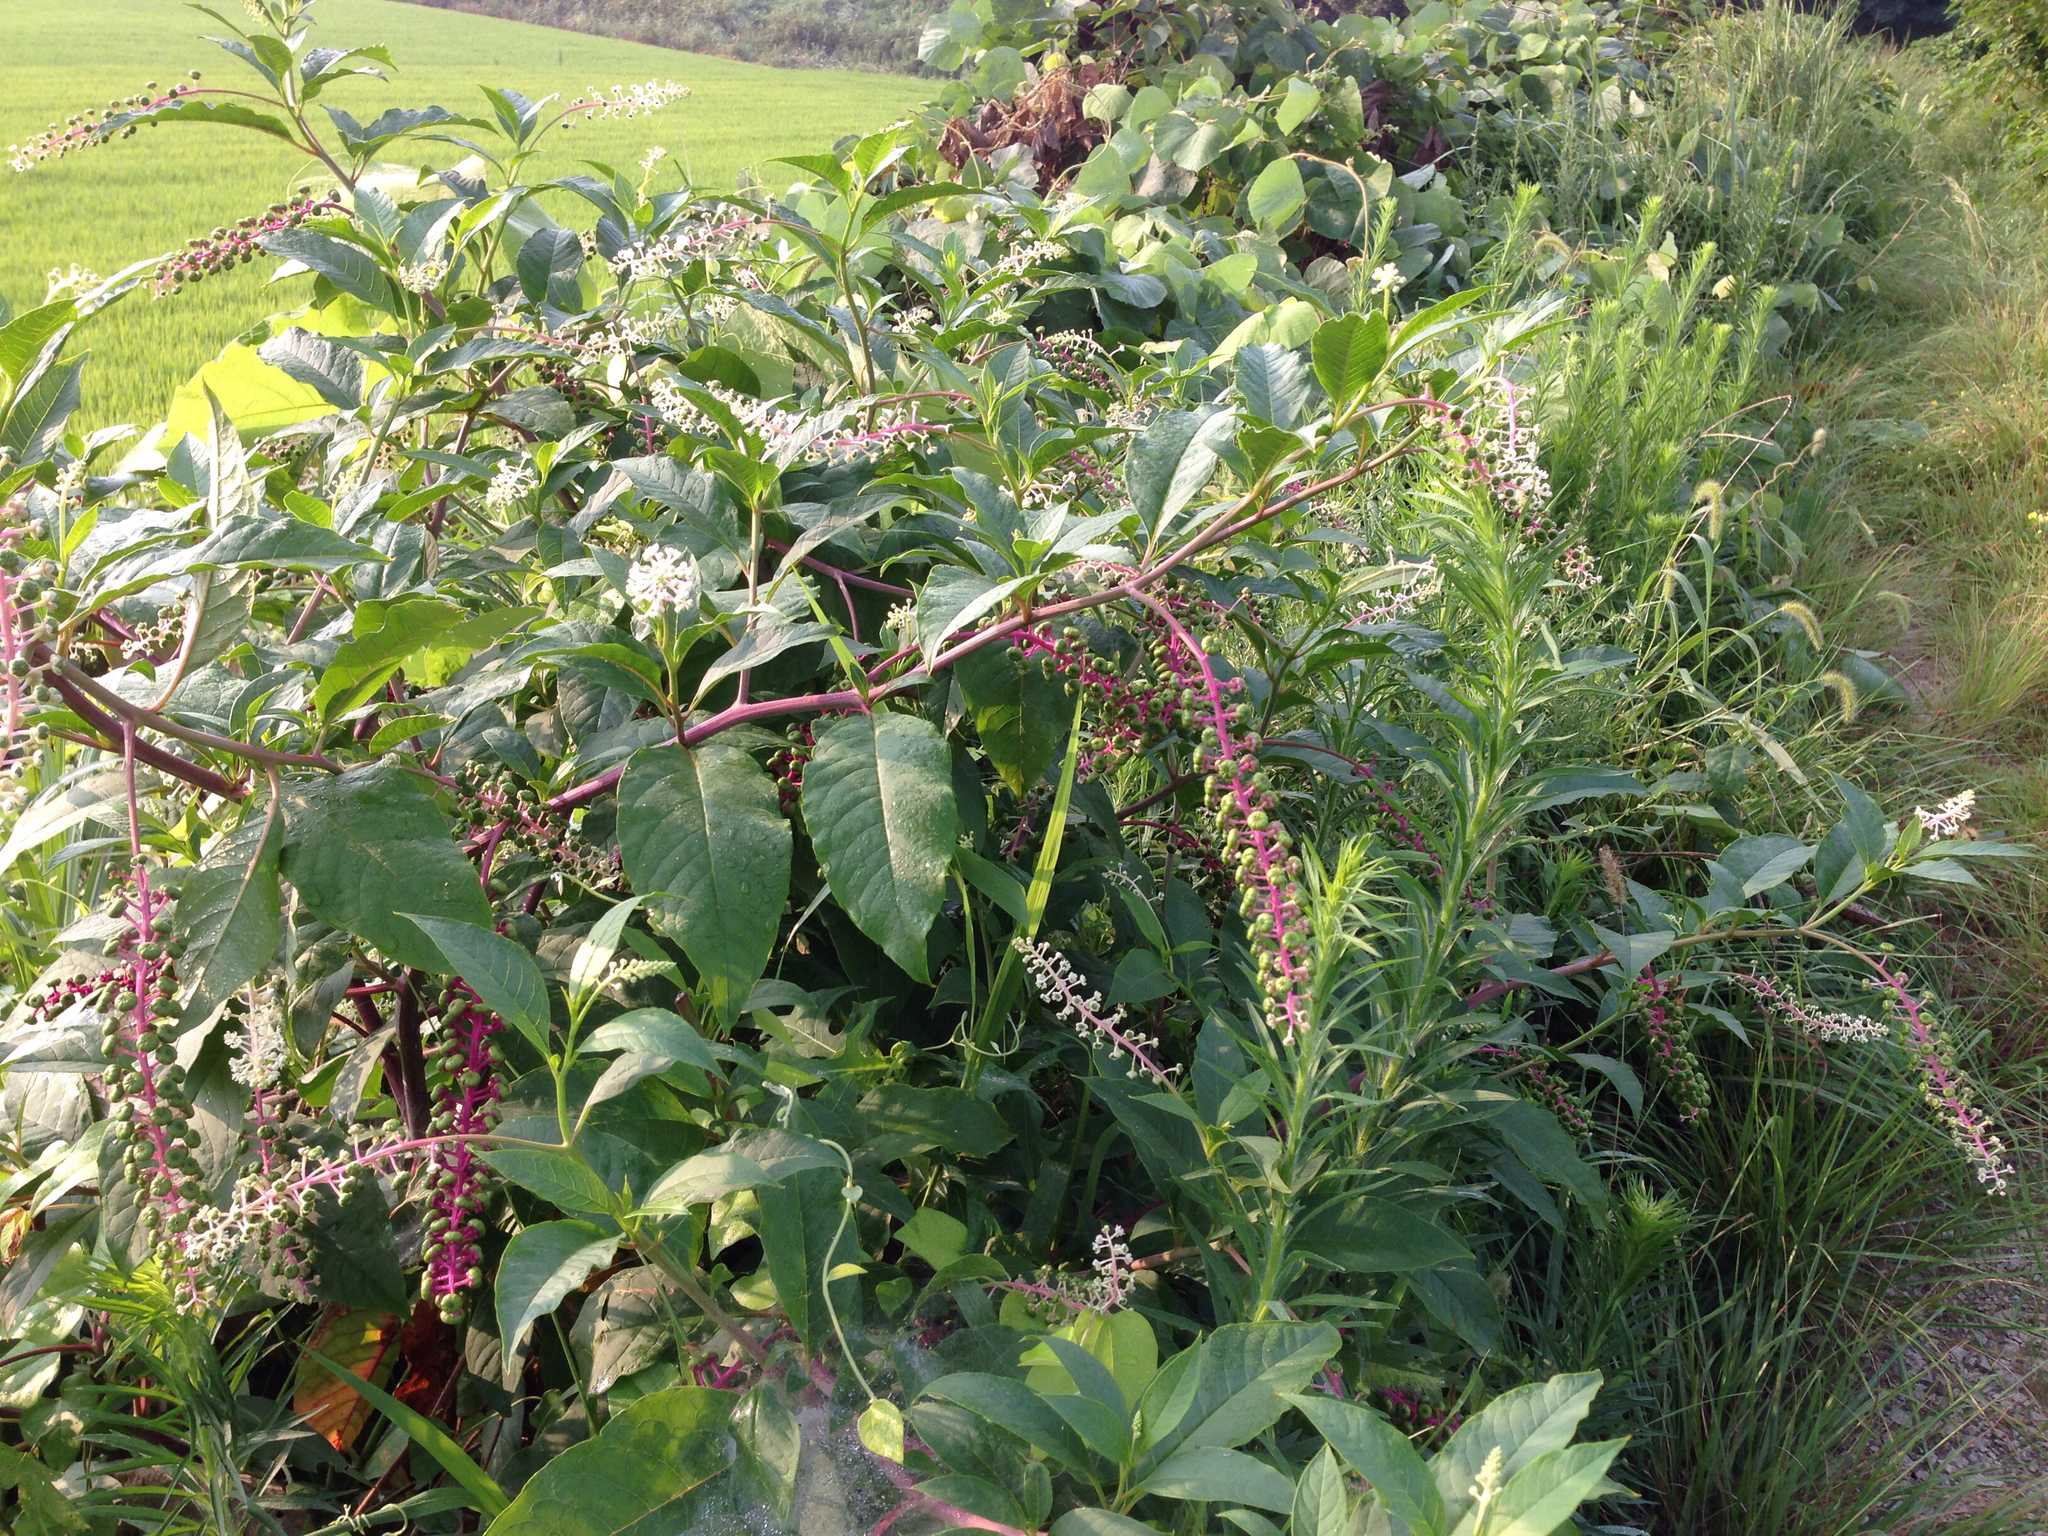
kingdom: Plantae
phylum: Tracheophyta
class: Magnoliopsida
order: Caryophyllales
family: Phytolaccaceae
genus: Phytolacca
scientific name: Phytolacca americana
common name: American pokeweed
